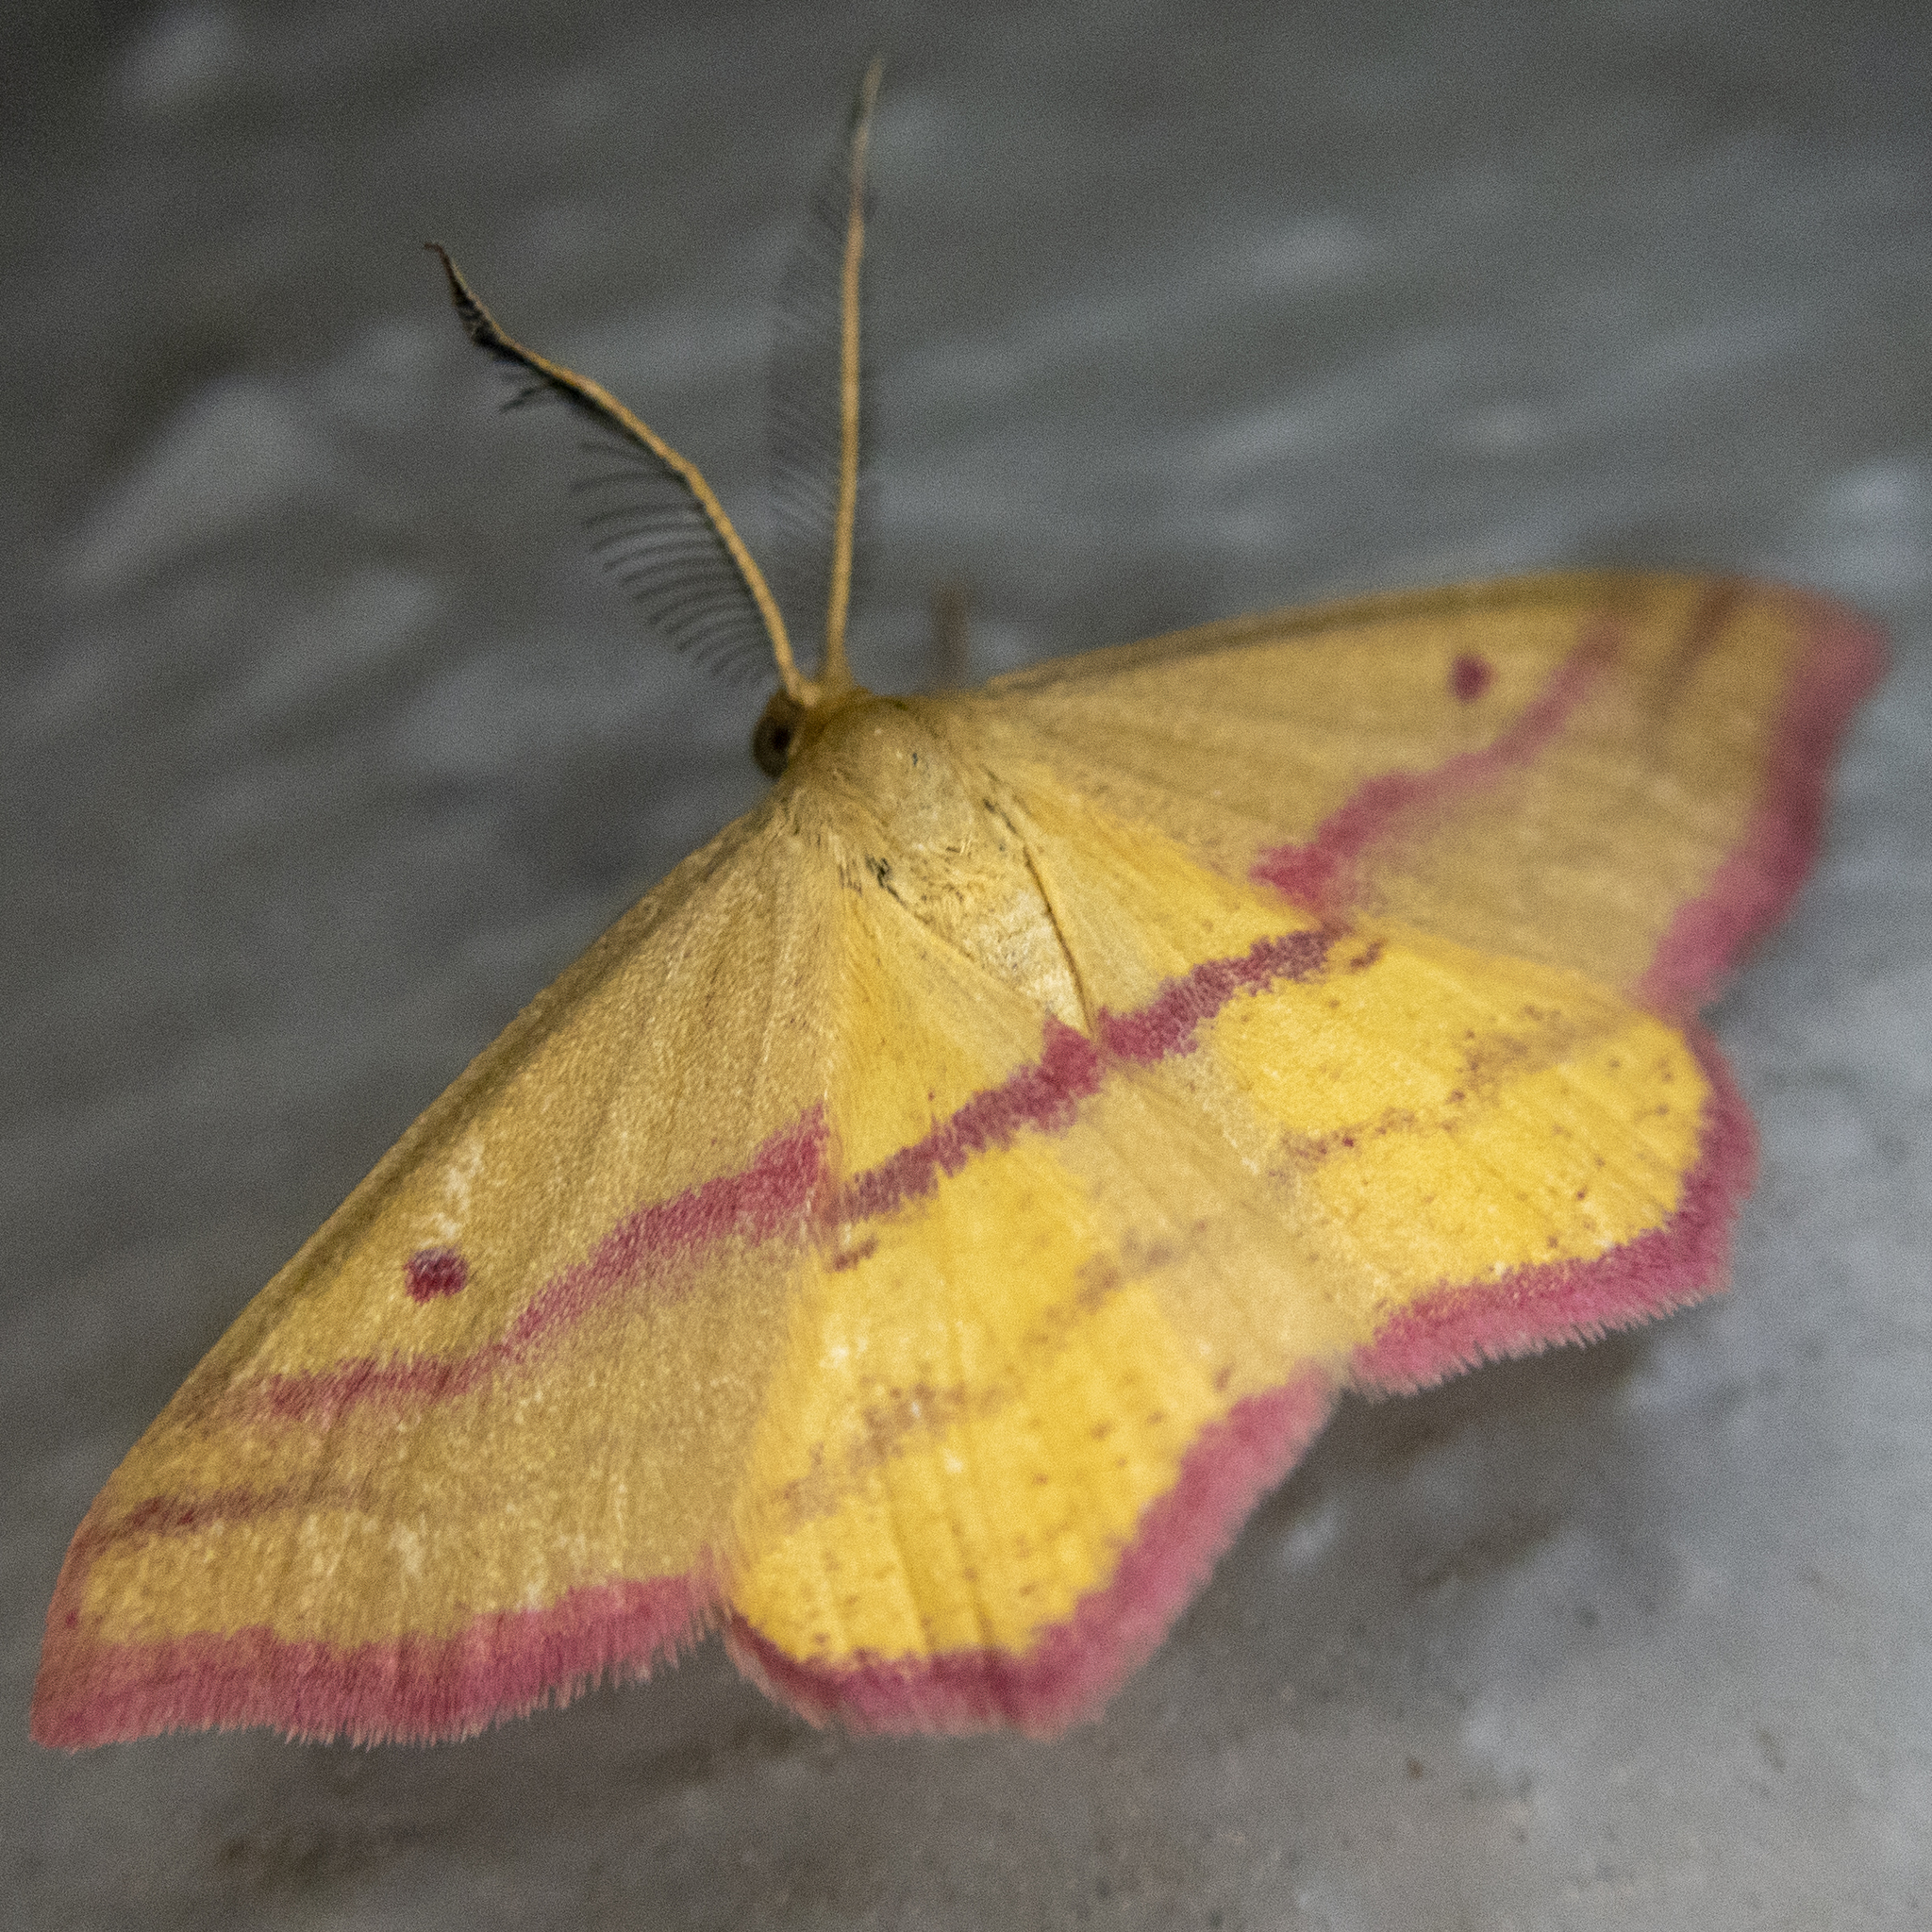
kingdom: Animalia
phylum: Arthropoda
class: Insecta
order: Lepidoptera
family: Geometridae
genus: Haematopis
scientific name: Haematopis grataria
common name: Chickweed geometer
